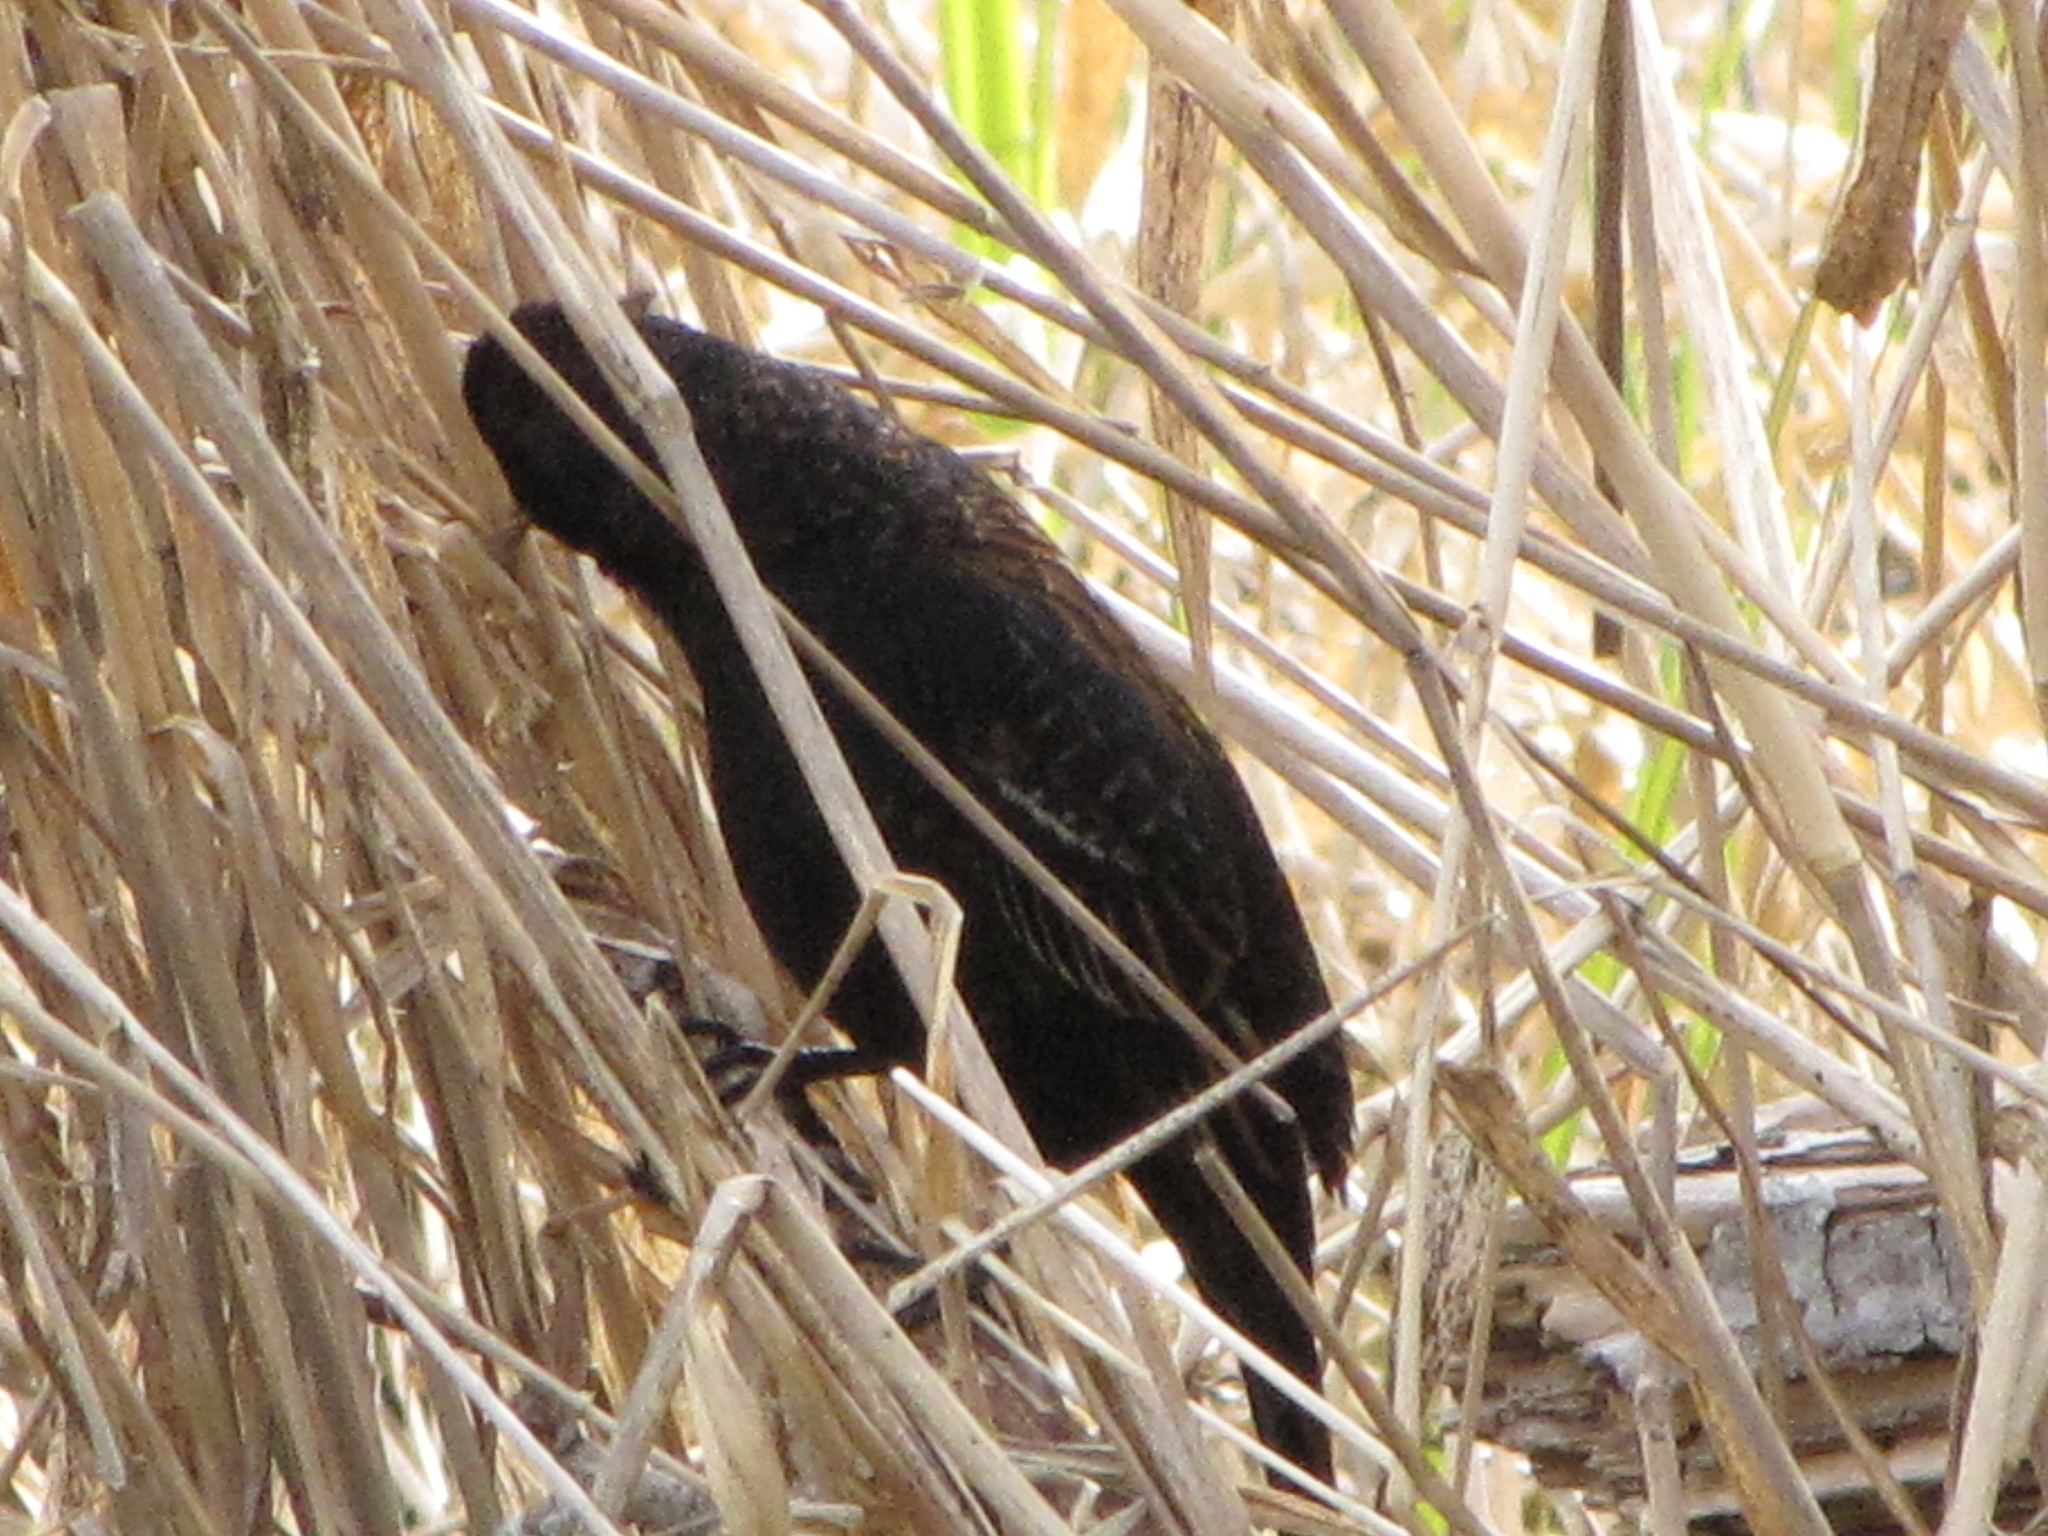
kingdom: Animalia
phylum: Chordata
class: Aves
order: Passeriformes
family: Icteridae
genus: Agelaius
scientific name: Agelaius phoeniceus
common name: Red-winged blackbird
